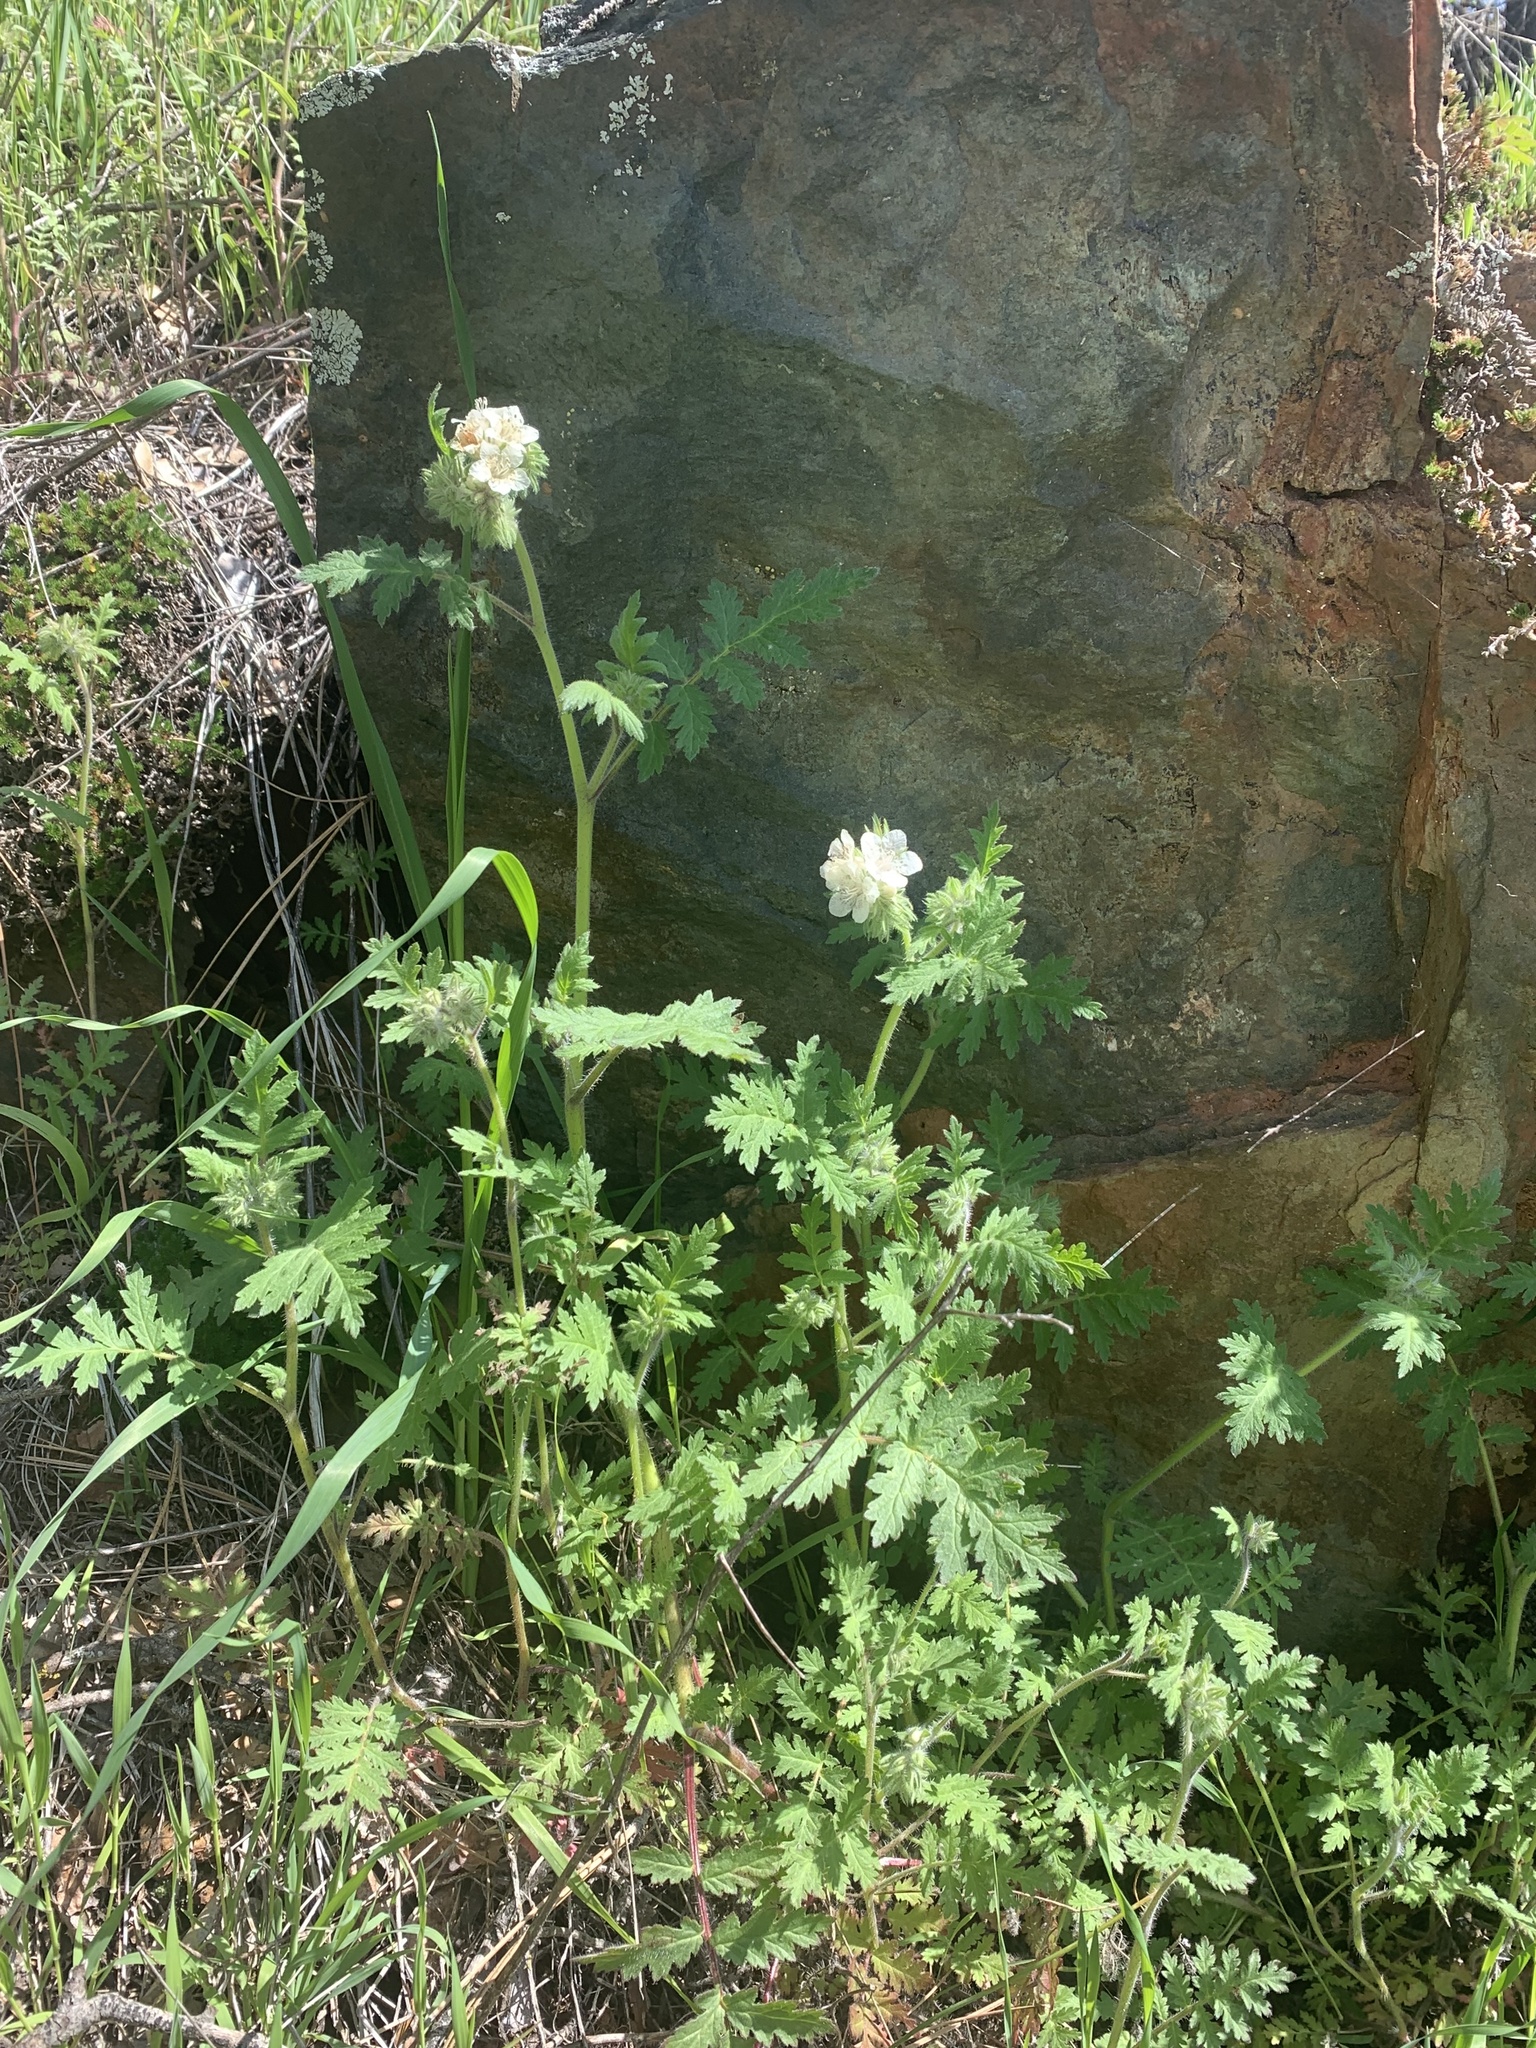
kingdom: Plantae
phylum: Tracheophyta
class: Magnoliopsida
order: Boraginales
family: Hydrophyllaceae
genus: Phacelia
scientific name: Phacelia cicutaria
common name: Caterpillar phacelia
